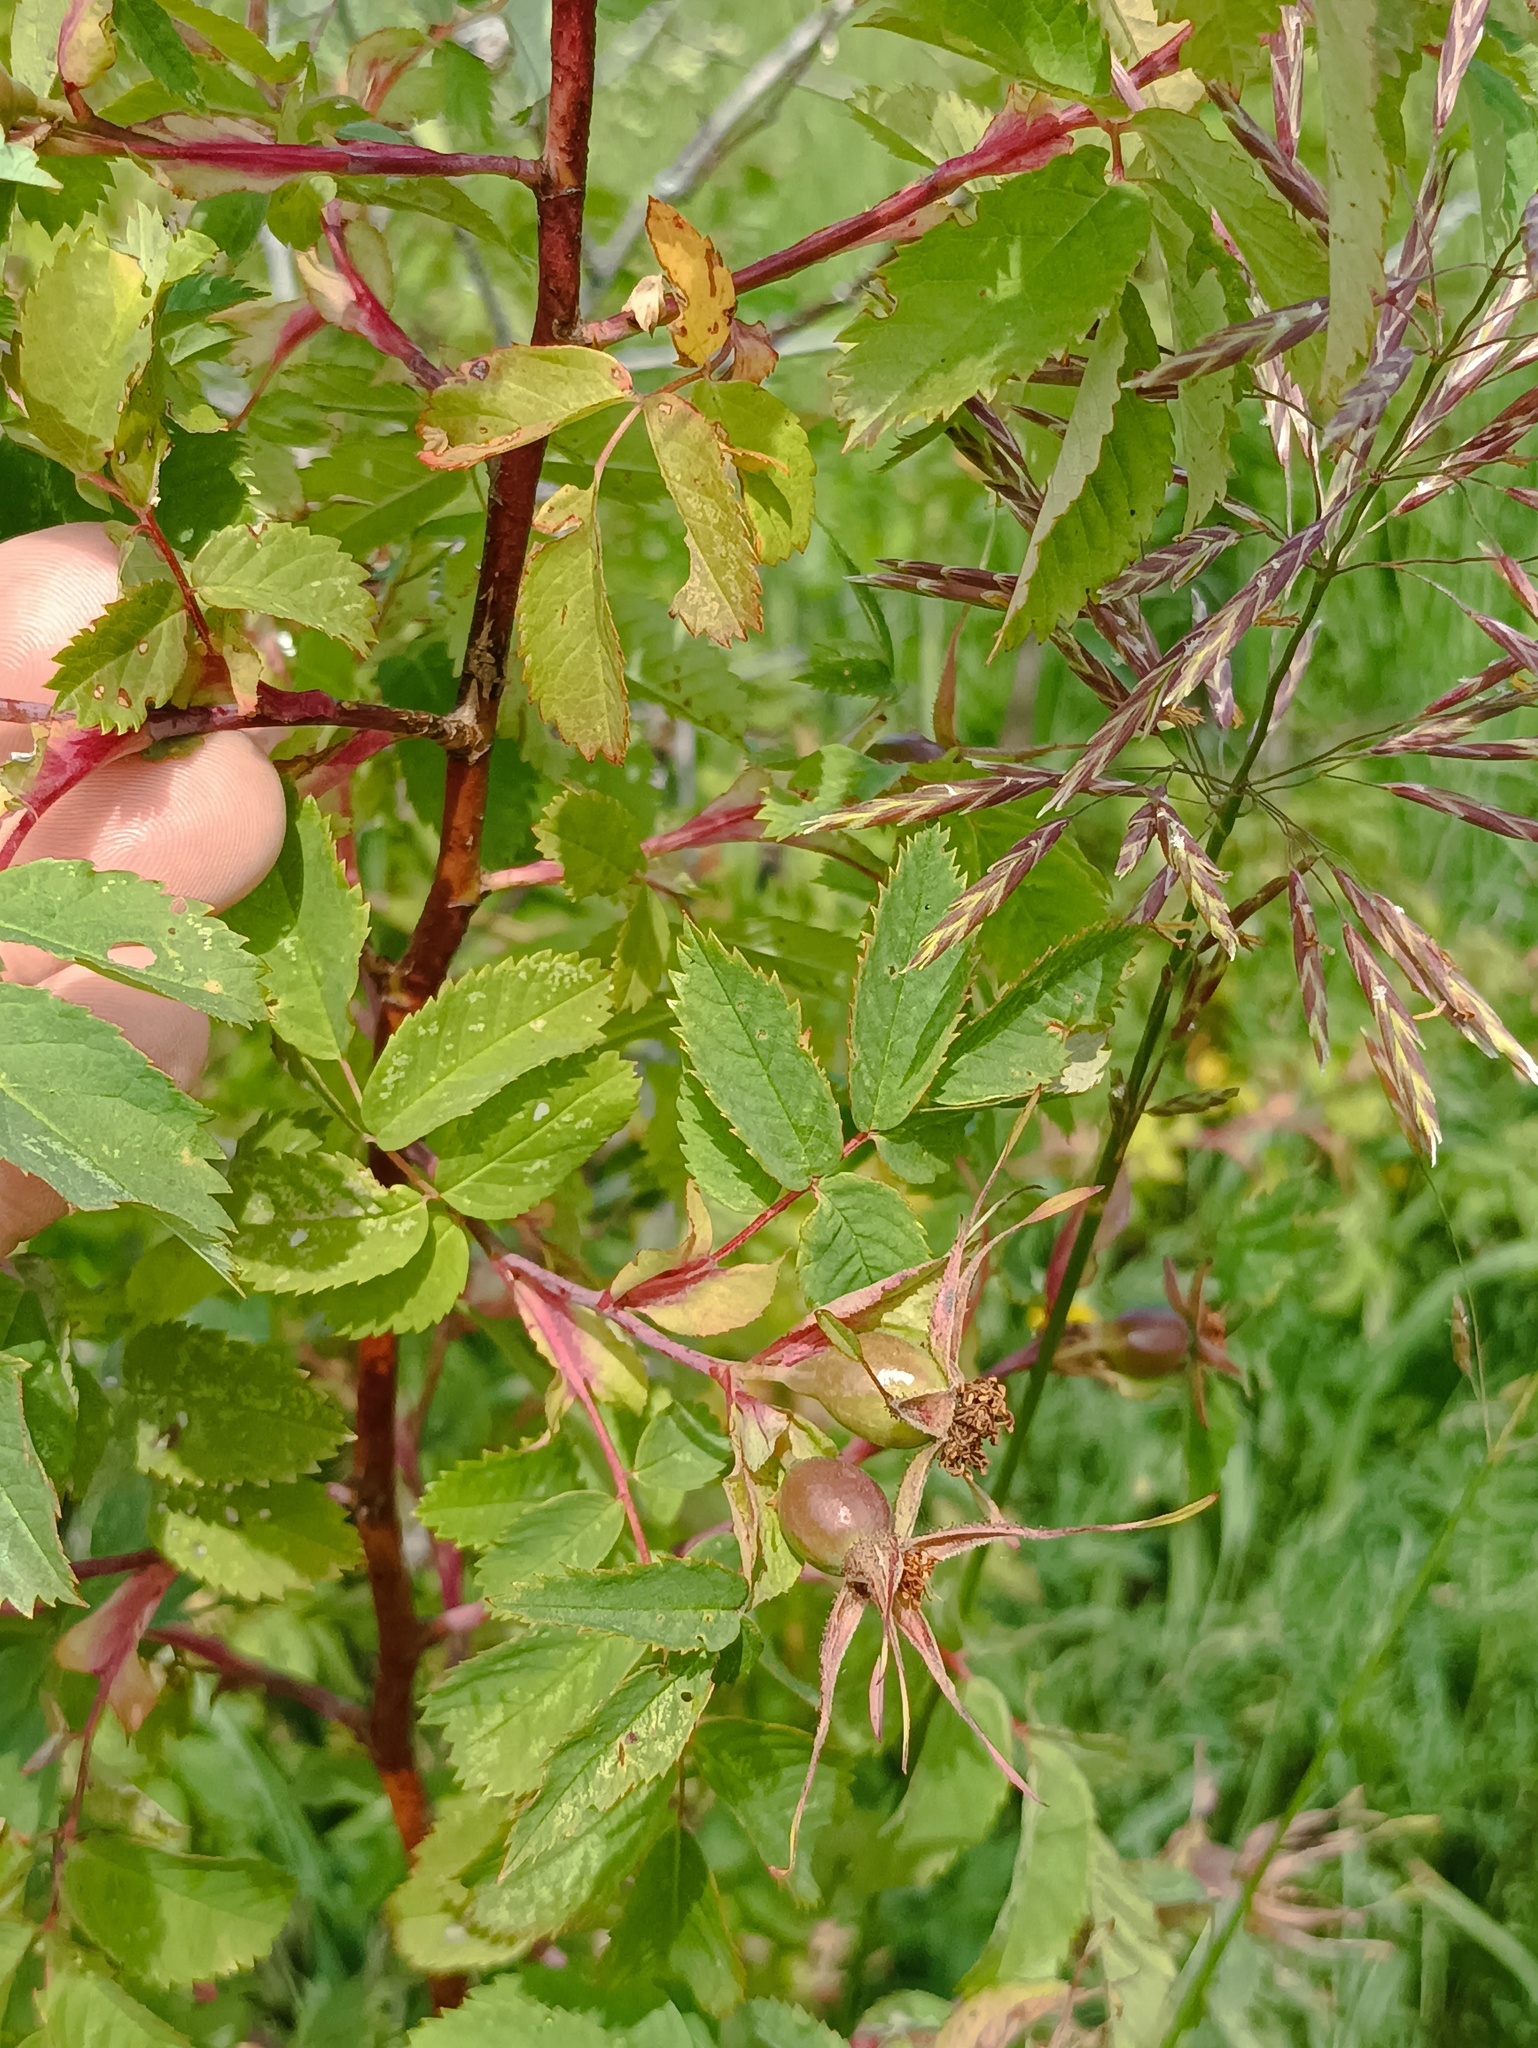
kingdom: Plantae
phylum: Tracheophyta
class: Magnoliopsida
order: Rosales
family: Rosaceae
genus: Rosa
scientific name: Rosa glabrifolia
